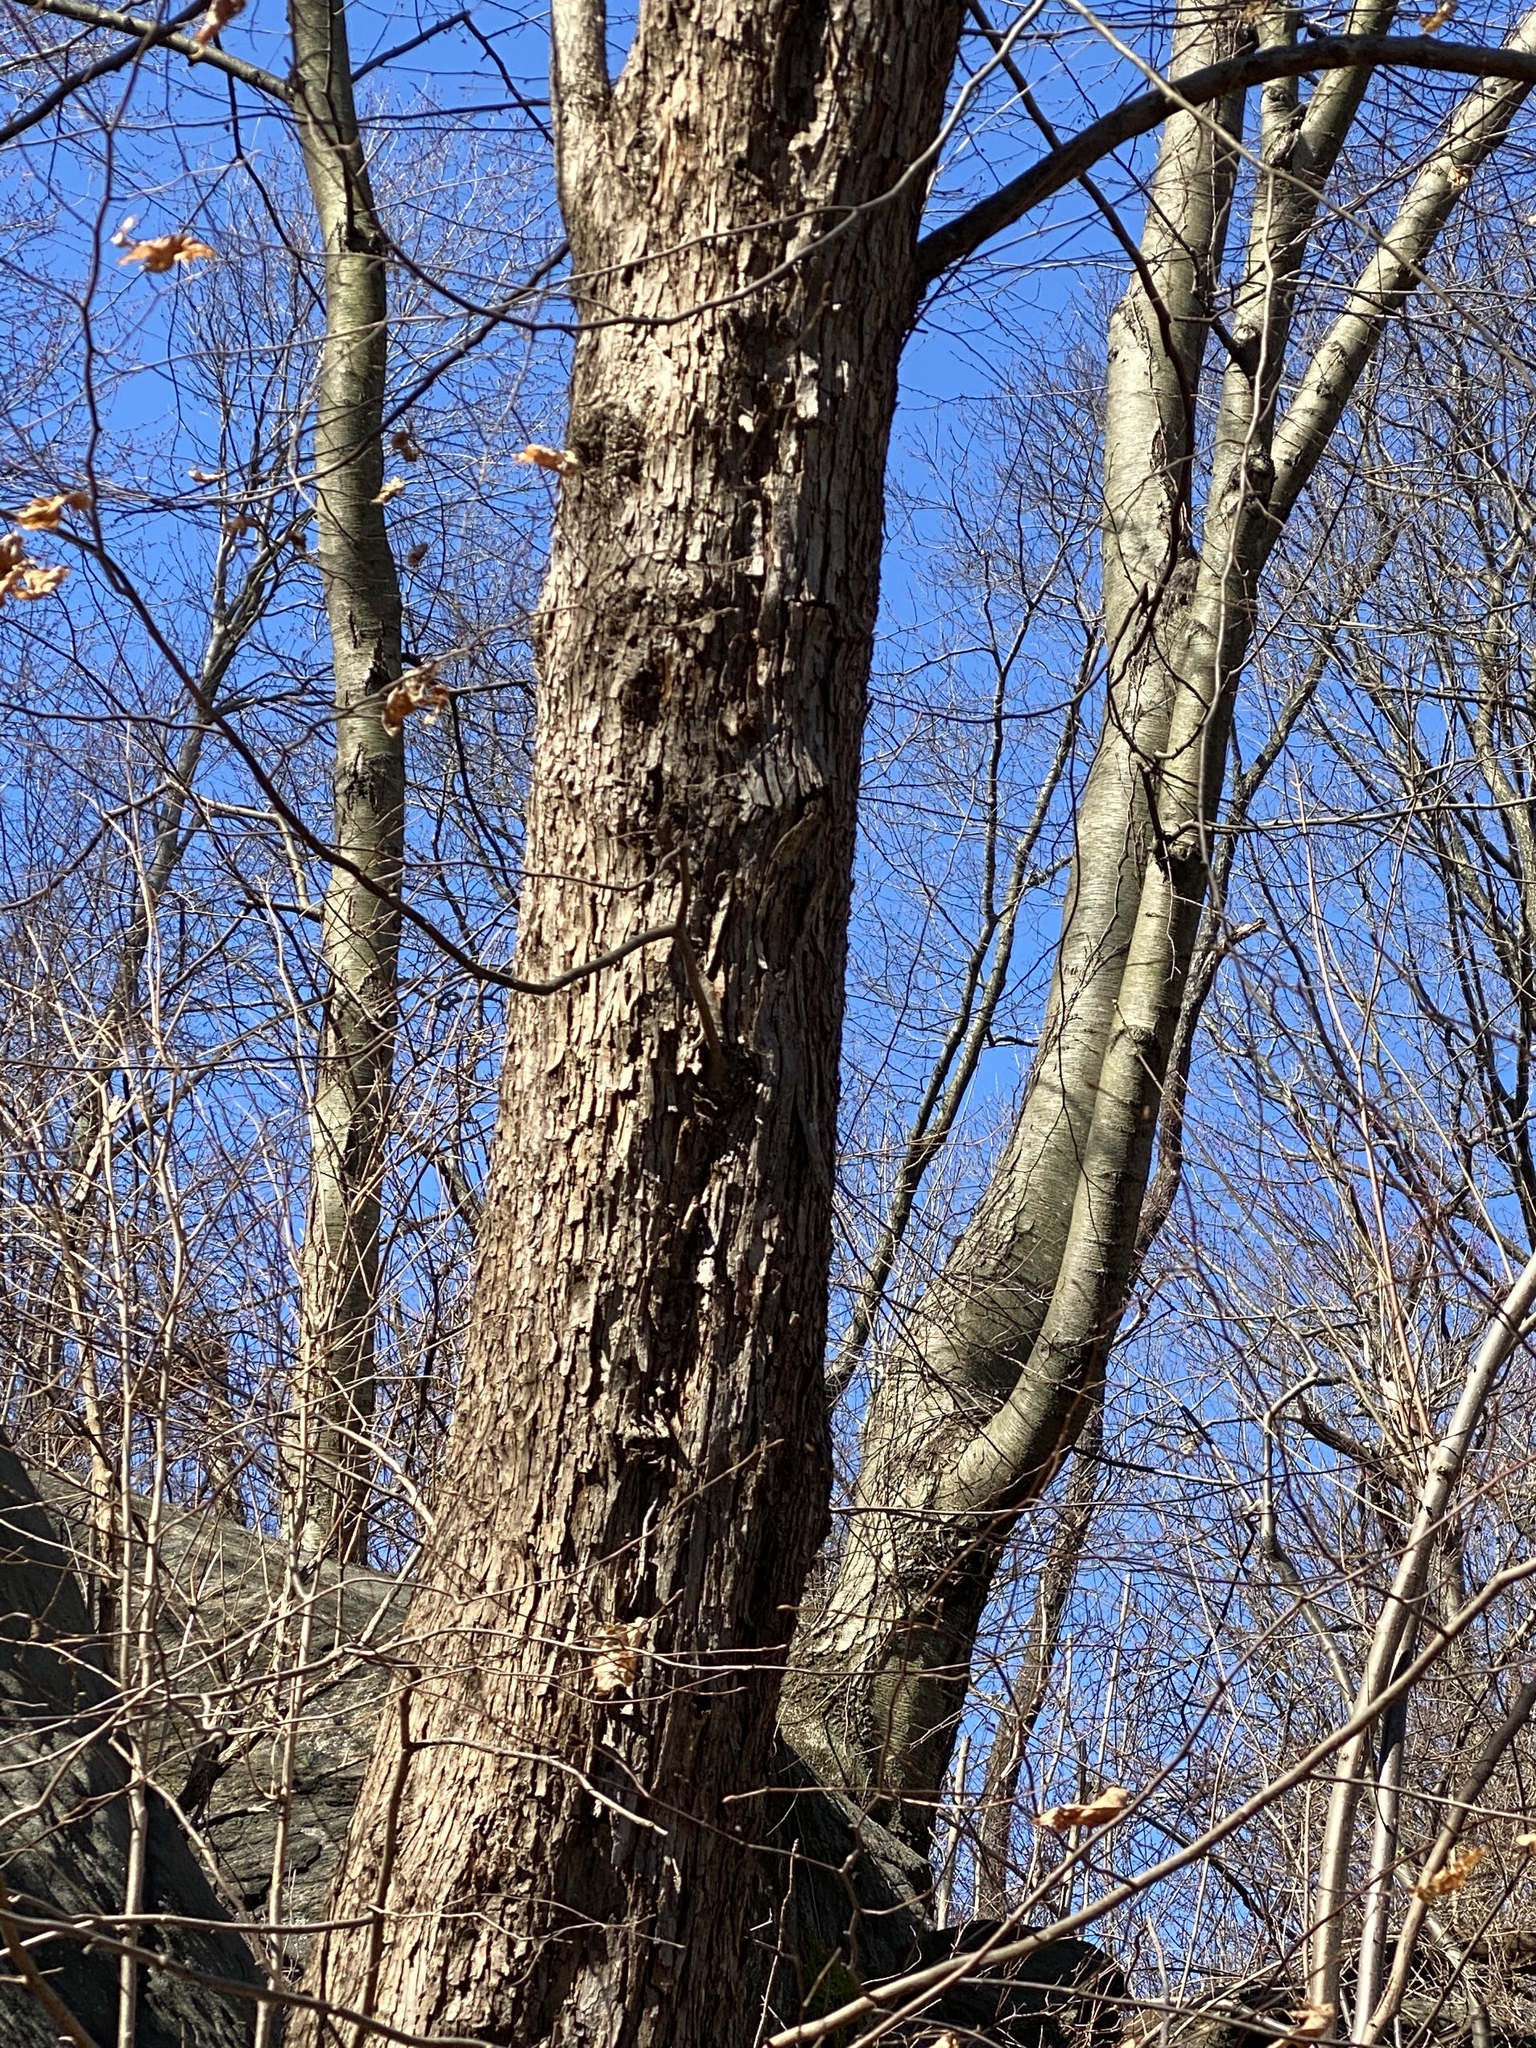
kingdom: Plantae
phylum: Tracheophyta
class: Magnoliopsida
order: Fagales
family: Betulaceae
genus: Ostrya
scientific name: Ostrya virginiana
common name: Ironwood
